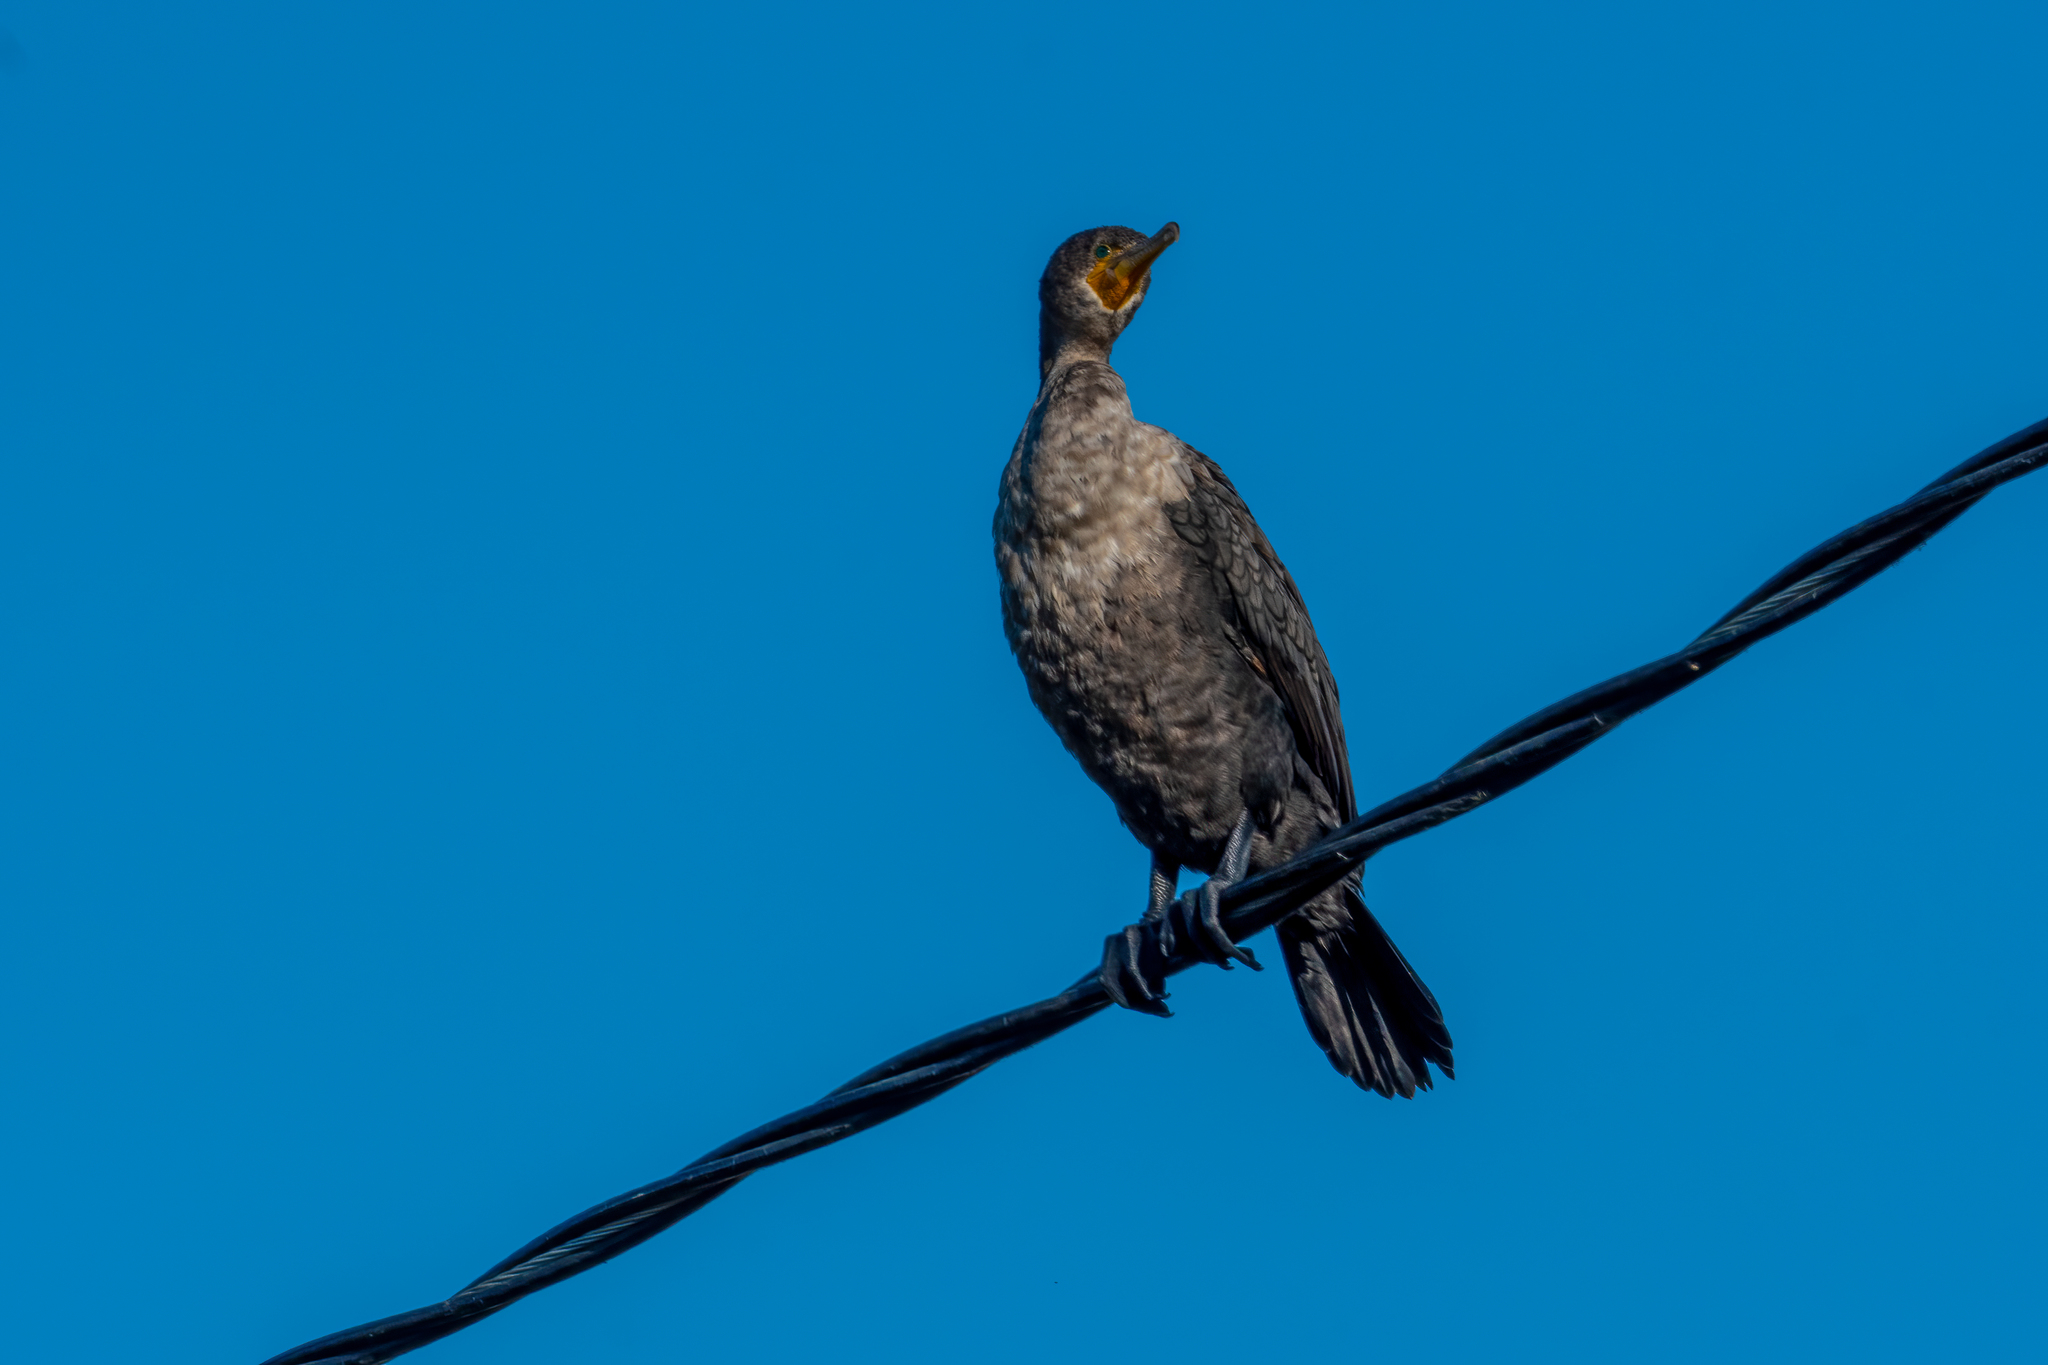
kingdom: Animalia
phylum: Chordata
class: Aves
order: Suliformes
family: Phalacrocoracidae
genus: Phalacrocorax
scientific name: Phalacrocorax auritus
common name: Double-crested cormorant
